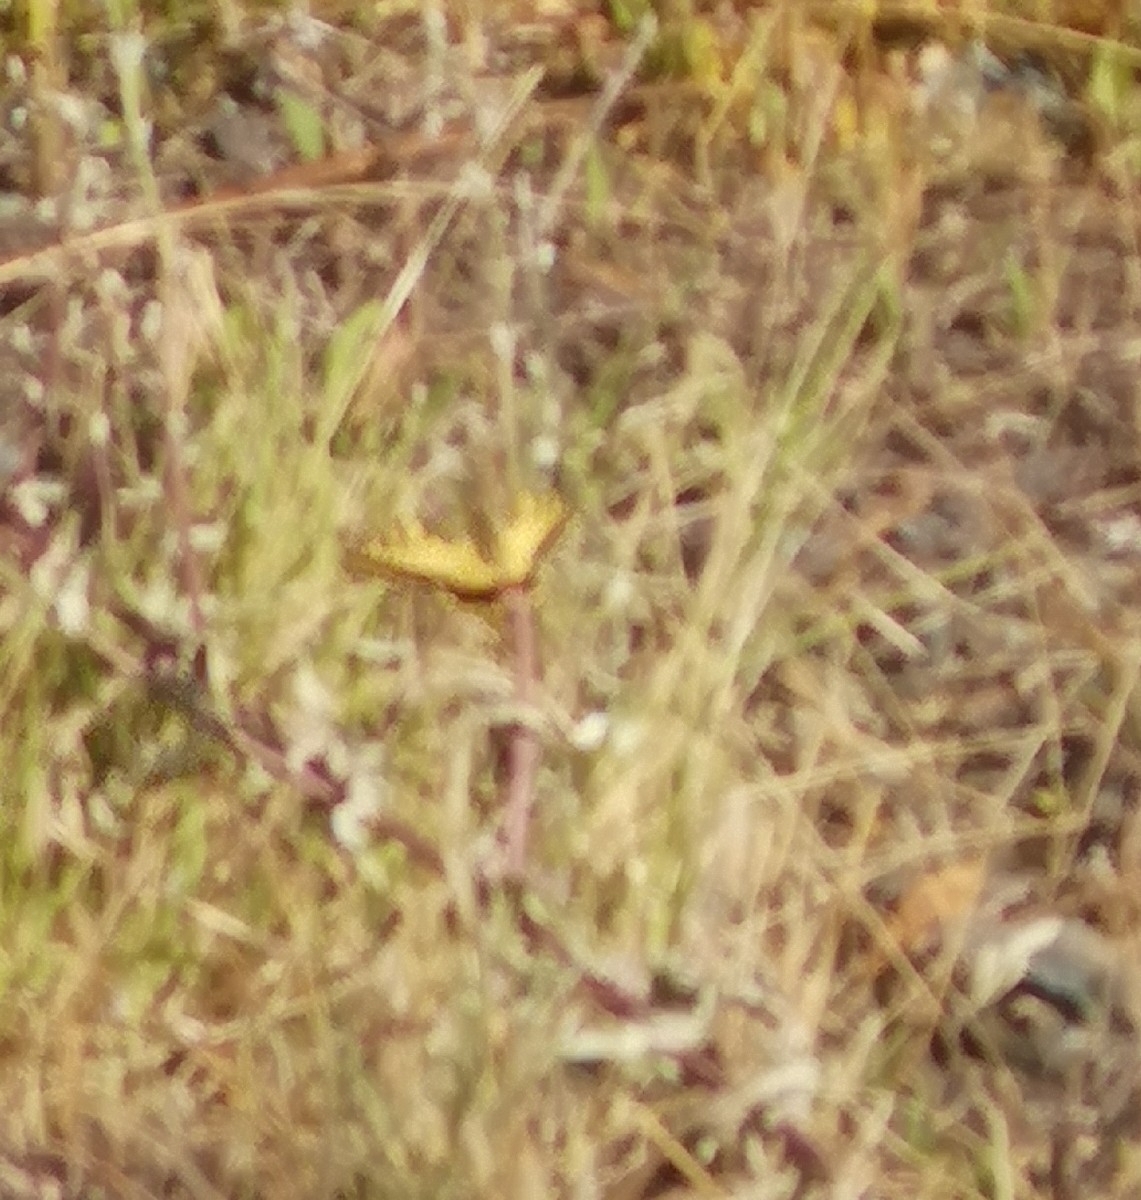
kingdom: Animalia
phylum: Arthropoda
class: Insecta
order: Lepidoptera
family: Papilionidae
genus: Papilio
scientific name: Papilio machaon
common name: Swallowtail
